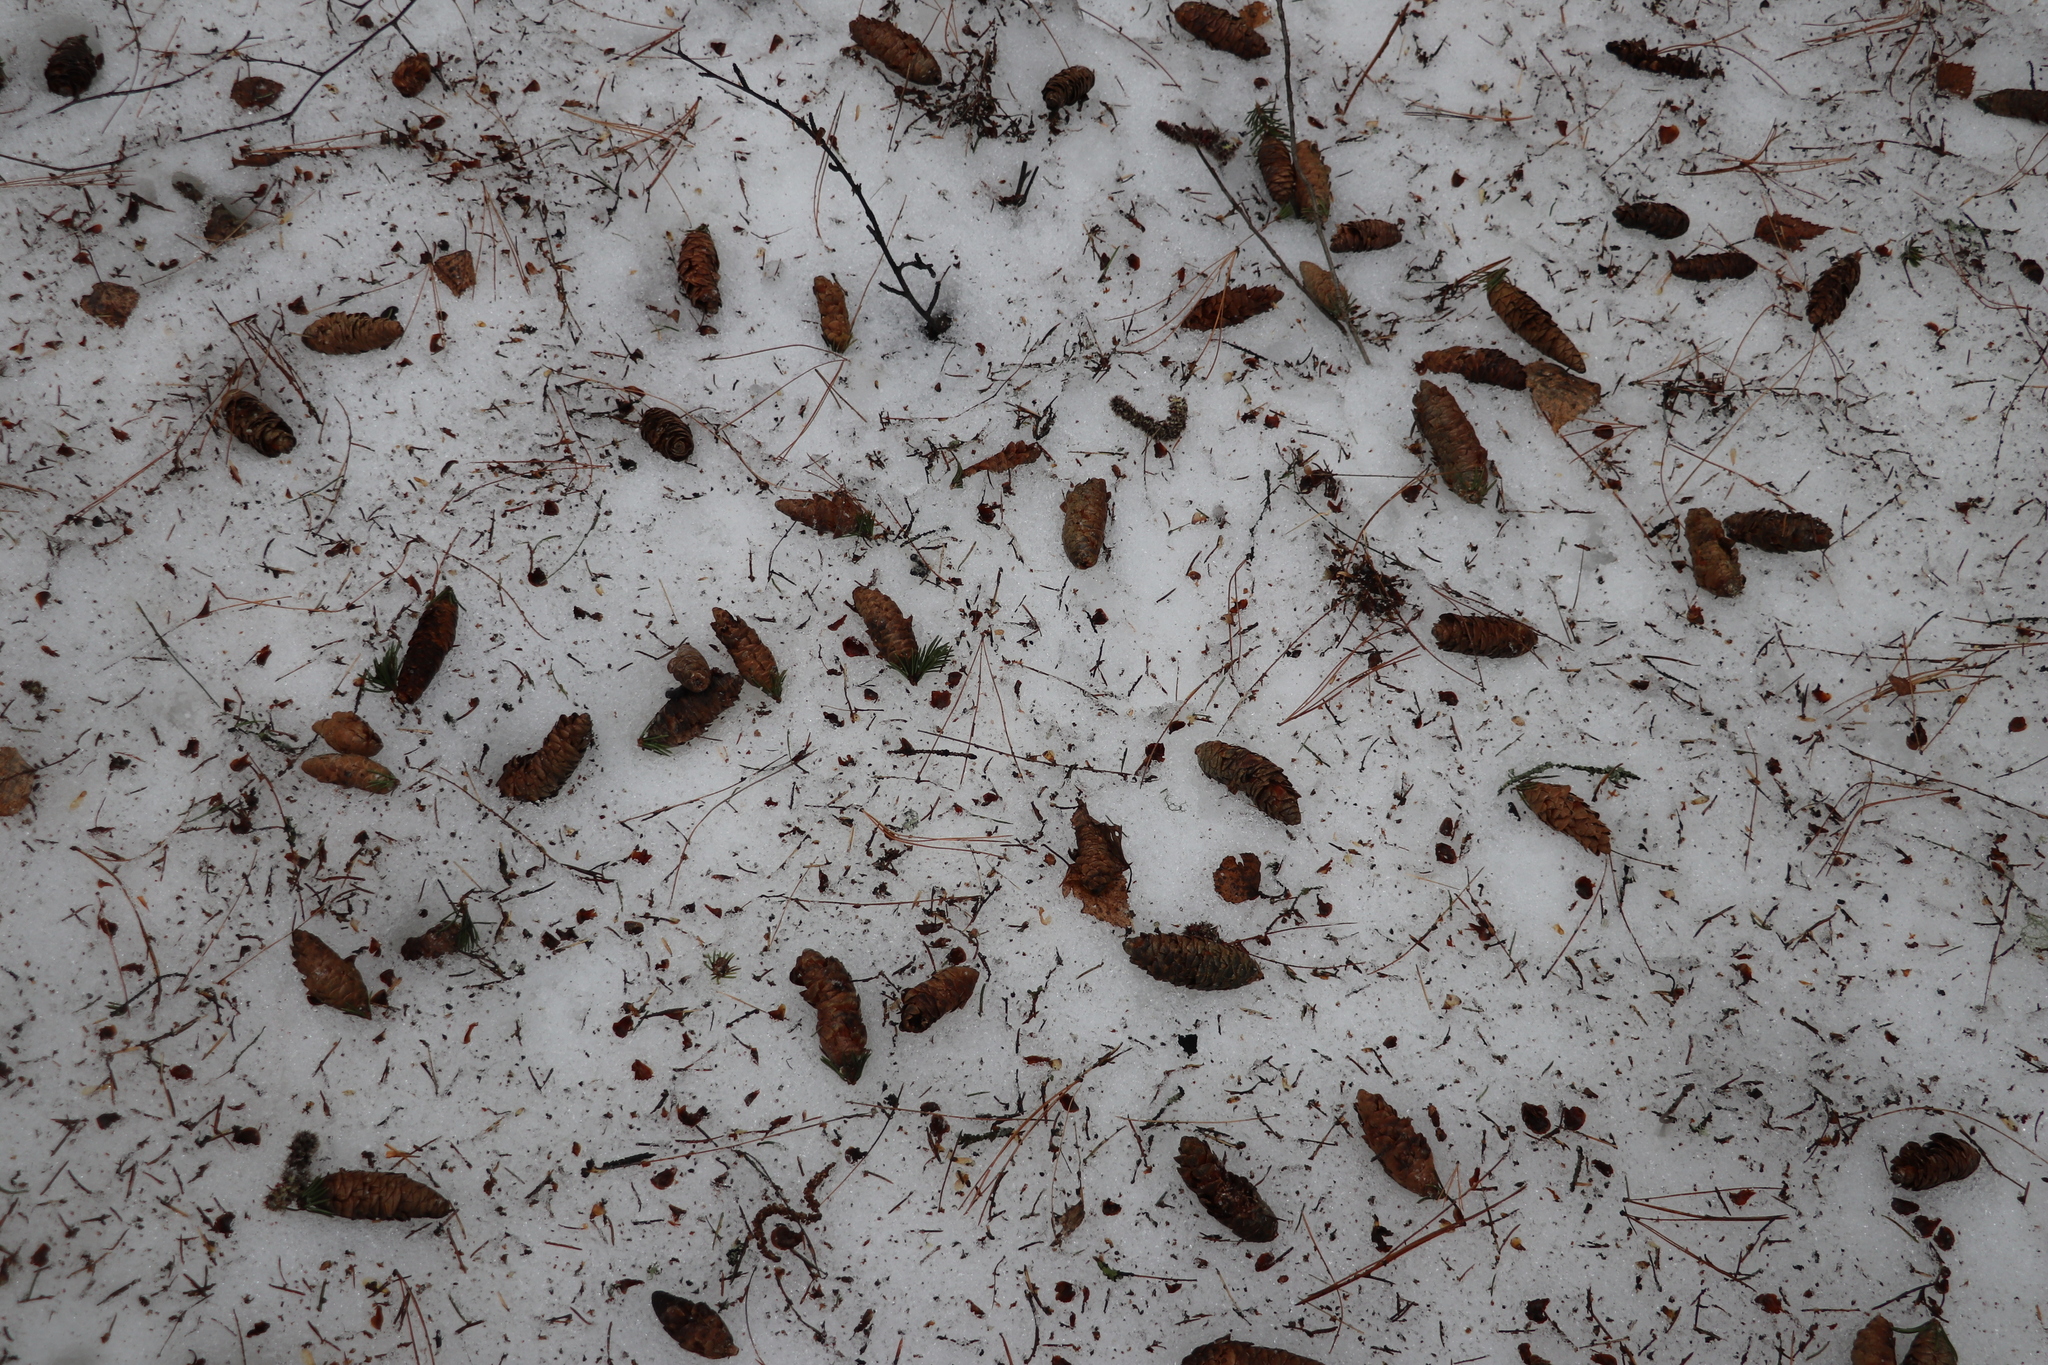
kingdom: Plantae
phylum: Tracheophyta
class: Pinopsida
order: Pinales
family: Pinaceae
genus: Picea
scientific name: Picea obovata
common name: Siberian spruce
